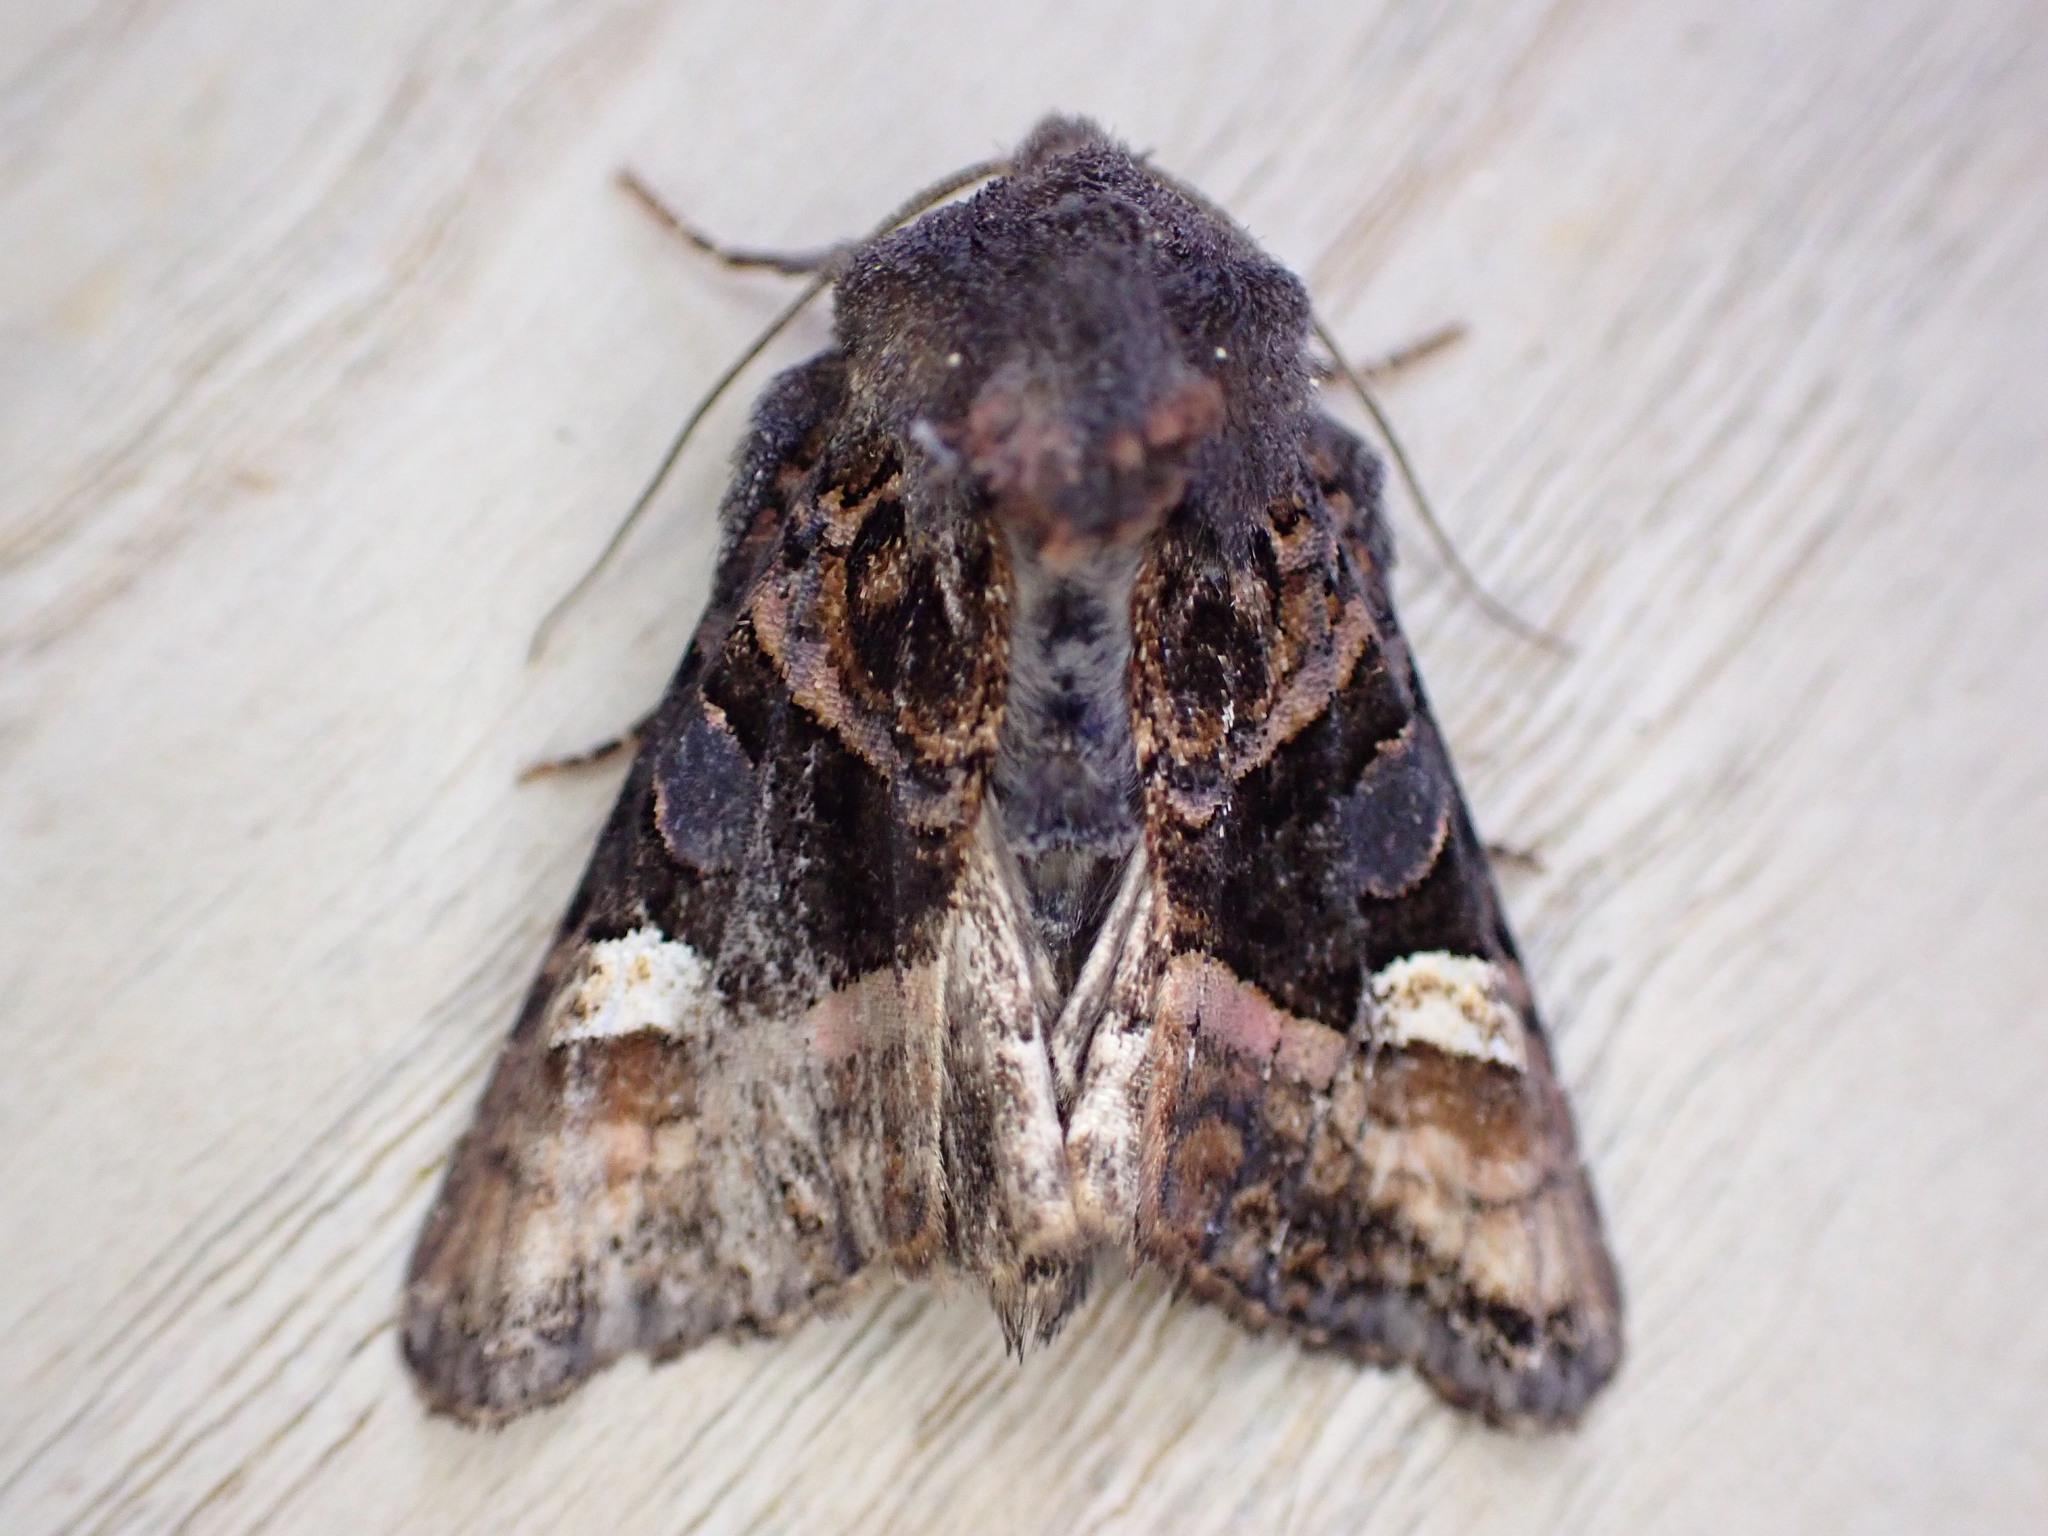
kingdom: Animalia
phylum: Arthropoda
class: Insecta
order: Lepidoptera
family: Noctuidae
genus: Euplexia
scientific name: Euplexia lucipara
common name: Small angle shades
